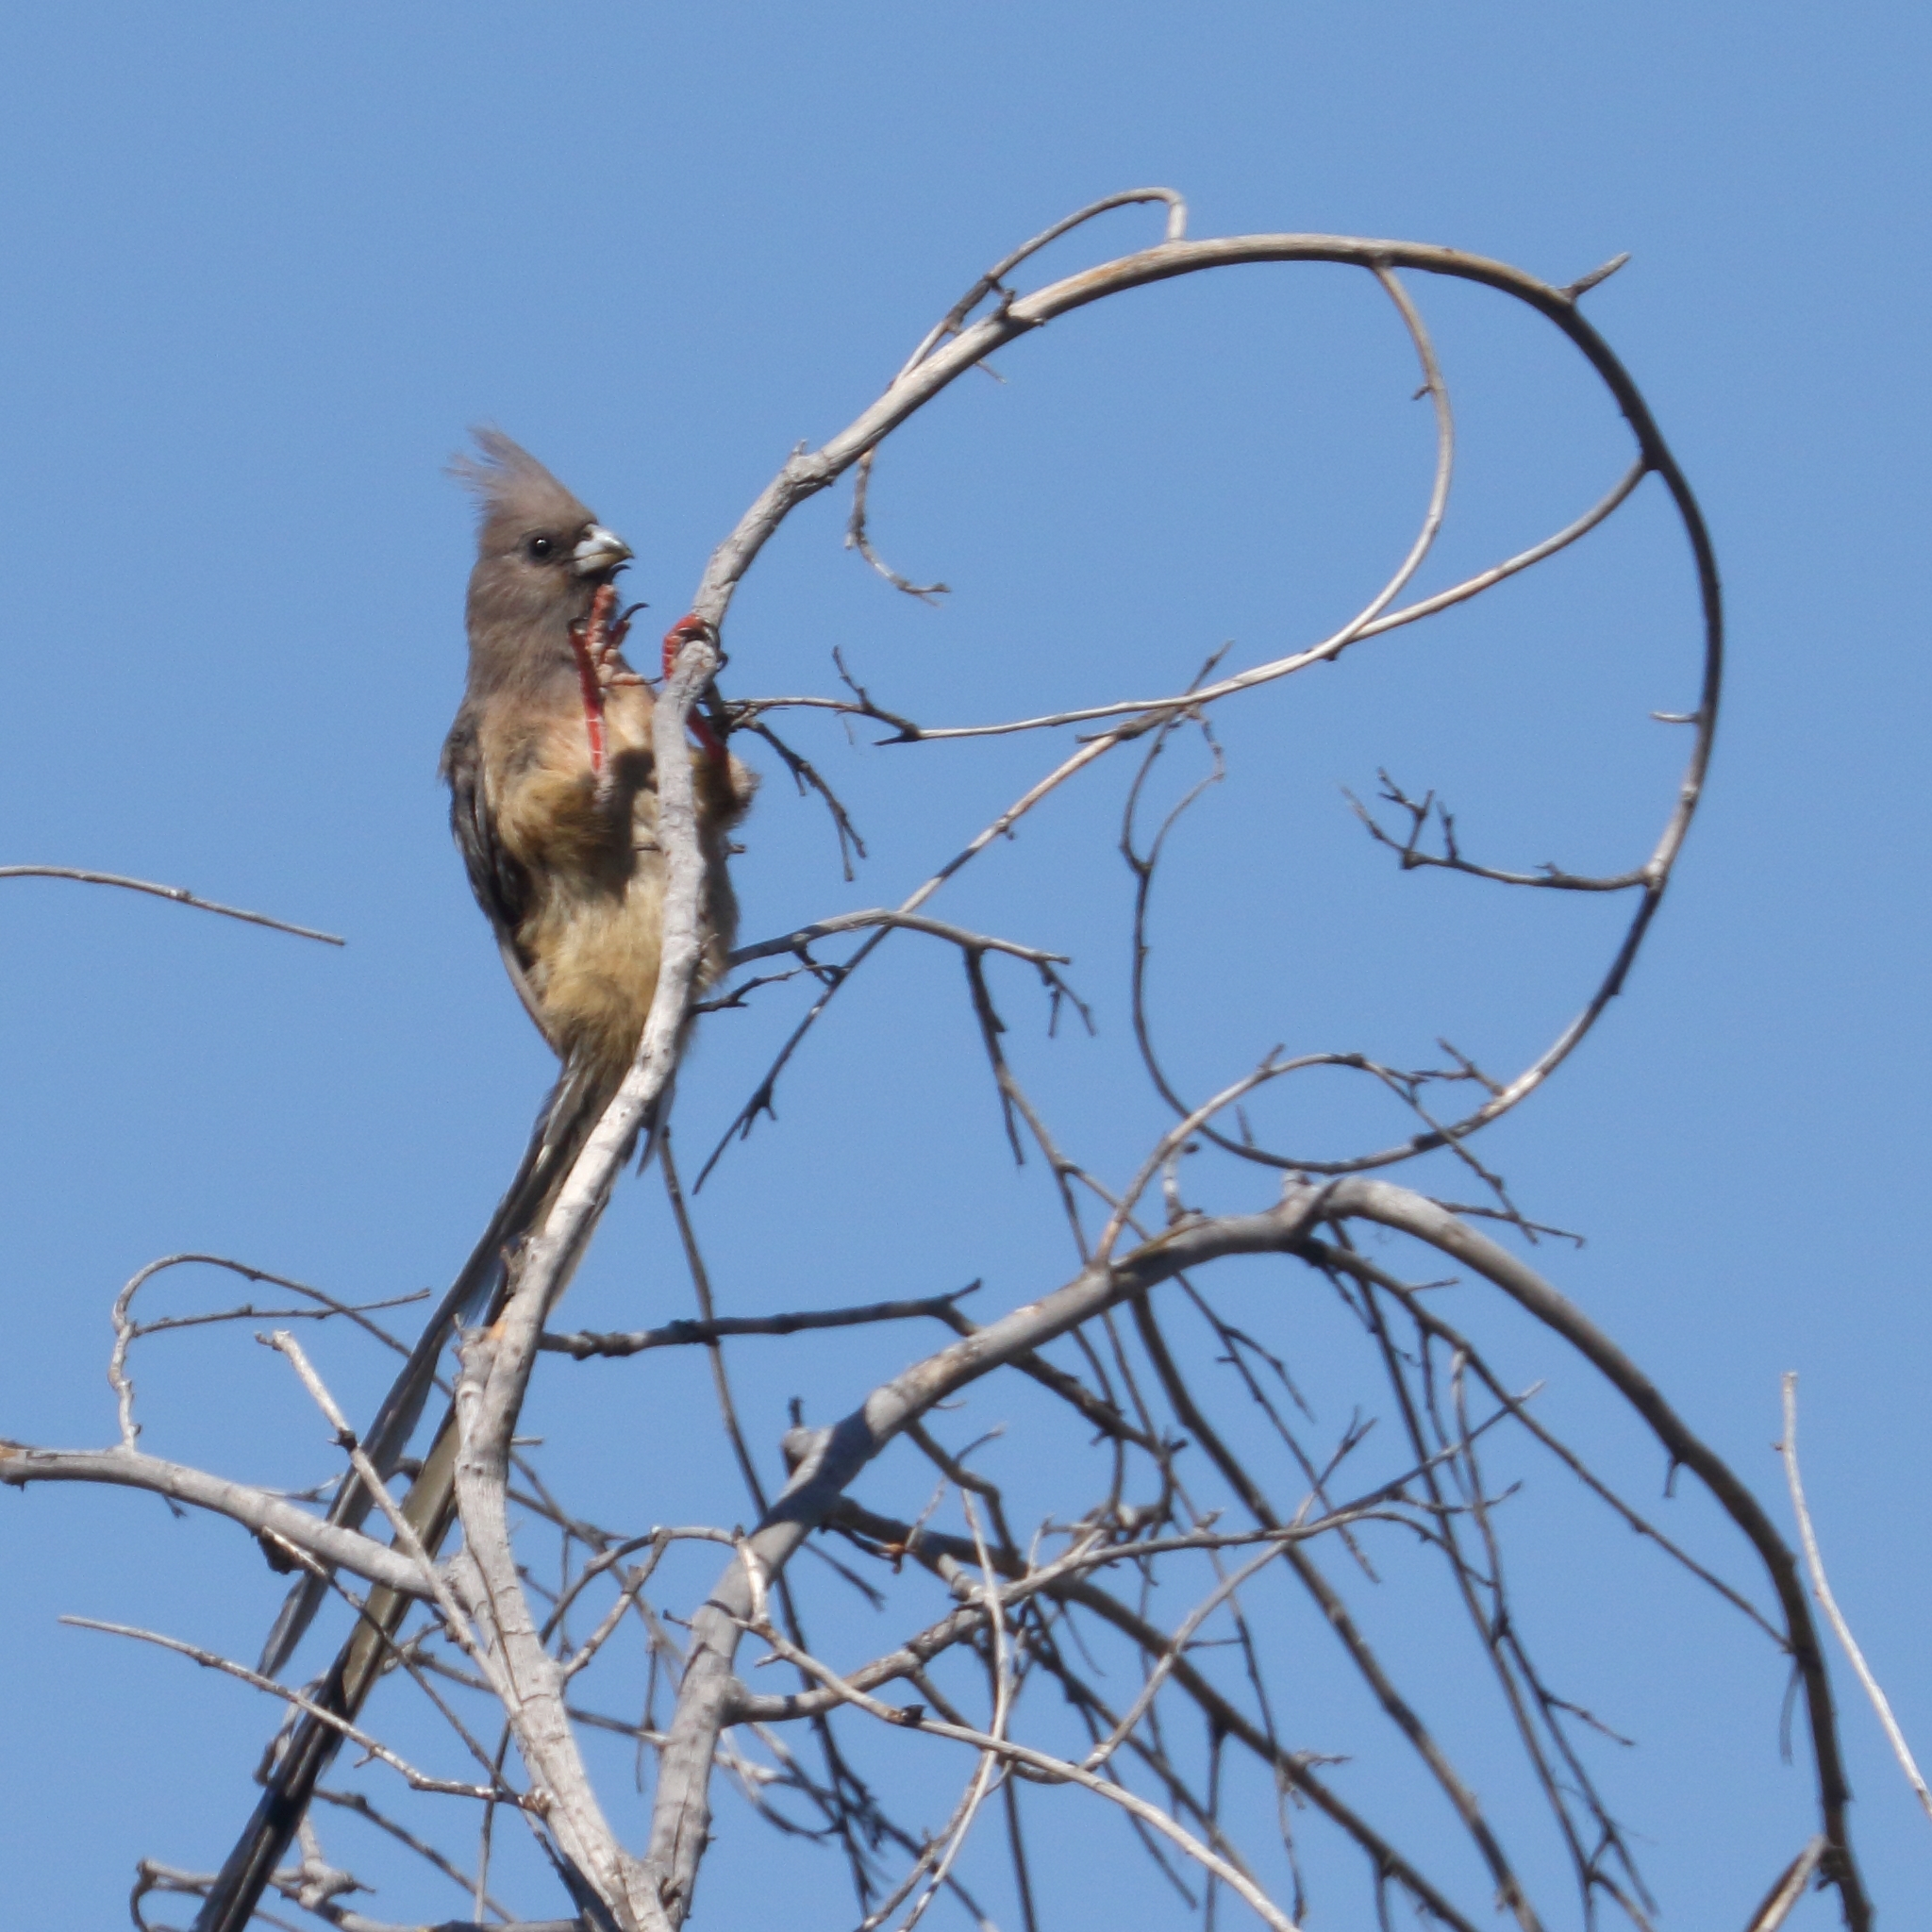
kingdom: Animalia
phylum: Chordata
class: Aves
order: Coliiformes
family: Coliidae
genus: Colius
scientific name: Colius colius
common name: White-backed mousebird
